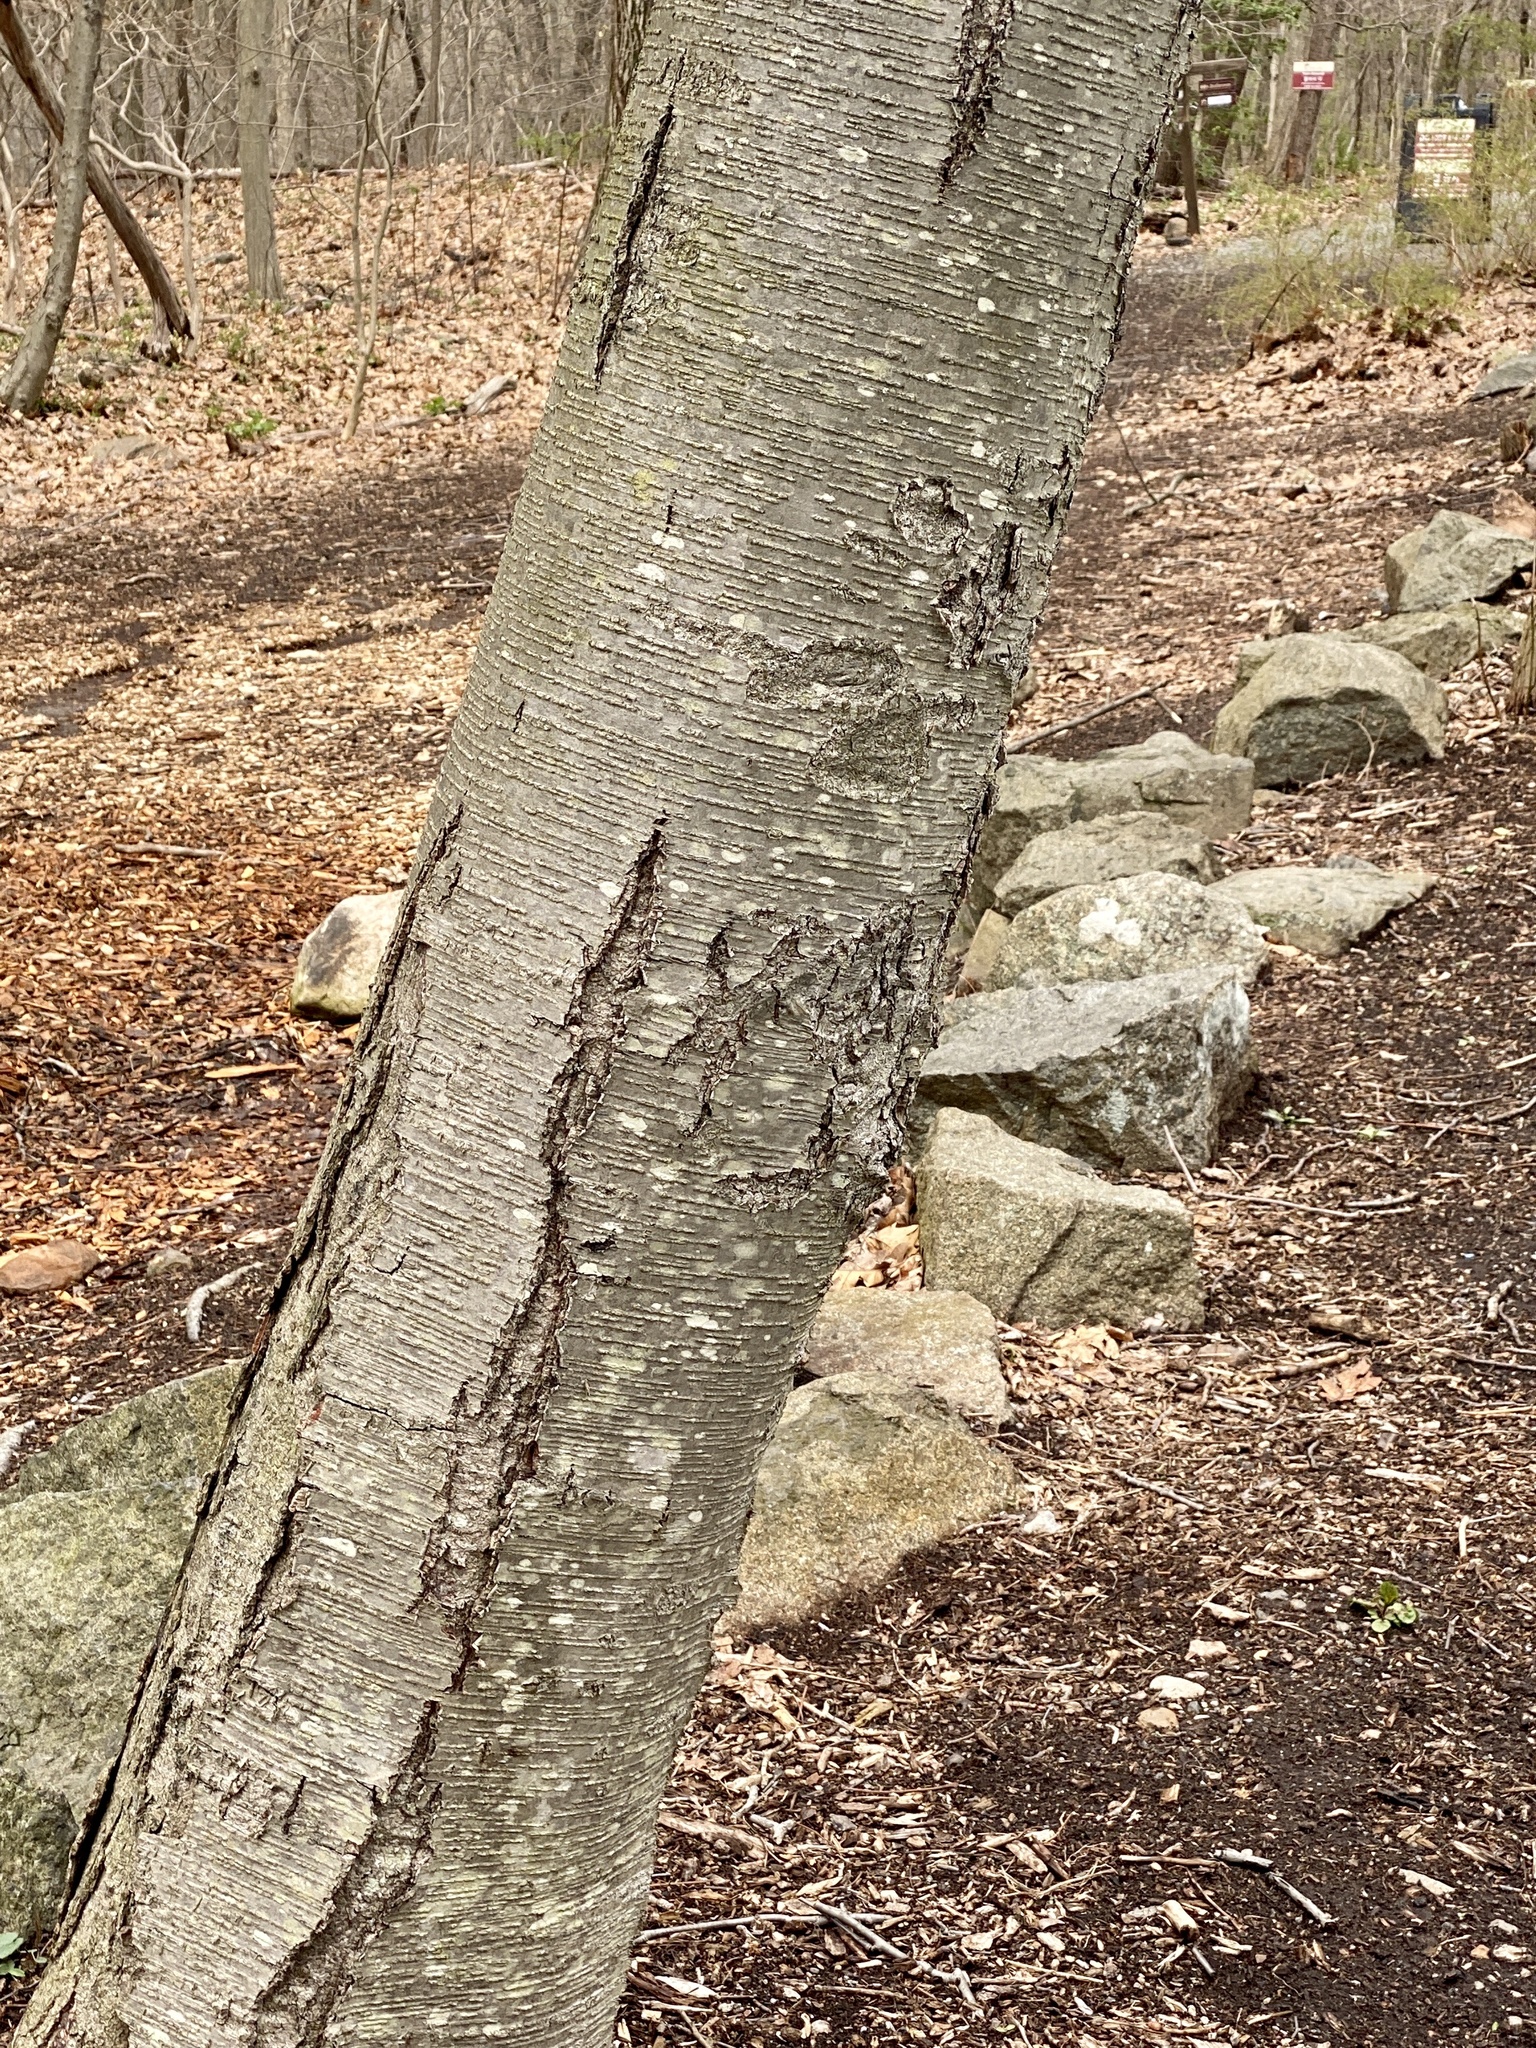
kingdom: Plantae
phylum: Tracheophyta
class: Magnoliopsida
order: Fagales
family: Betulaceae
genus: Betula
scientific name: Betula lenta
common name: Black birch
